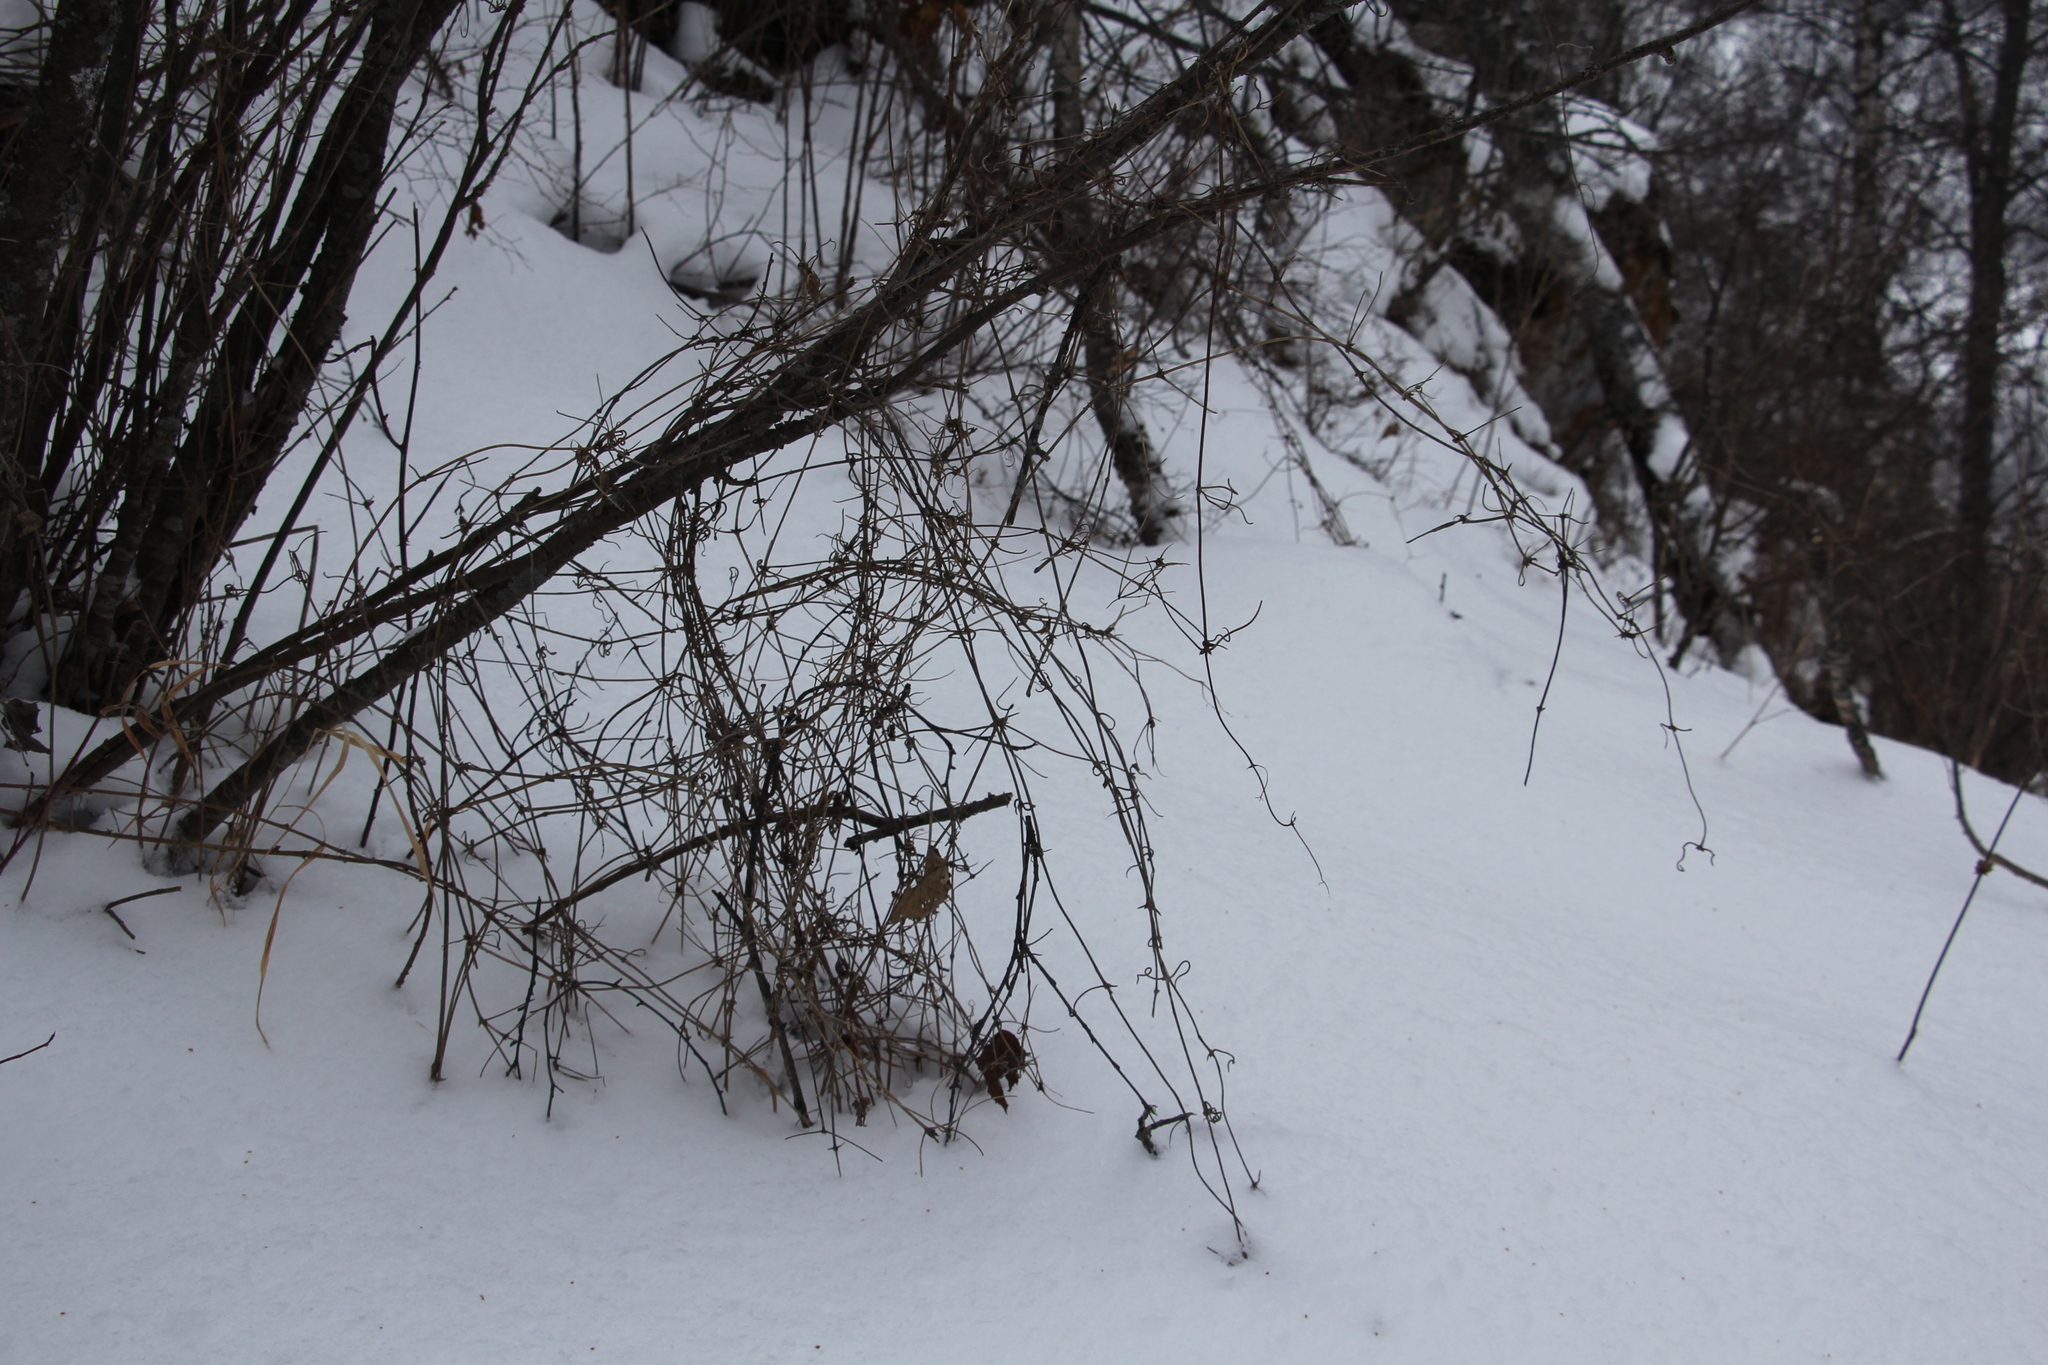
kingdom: Plantae
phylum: Tracheophyta
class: Magnoliopsida
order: Ranunculales
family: Ranunculaceae
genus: Clematis
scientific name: Clematis sibirica
